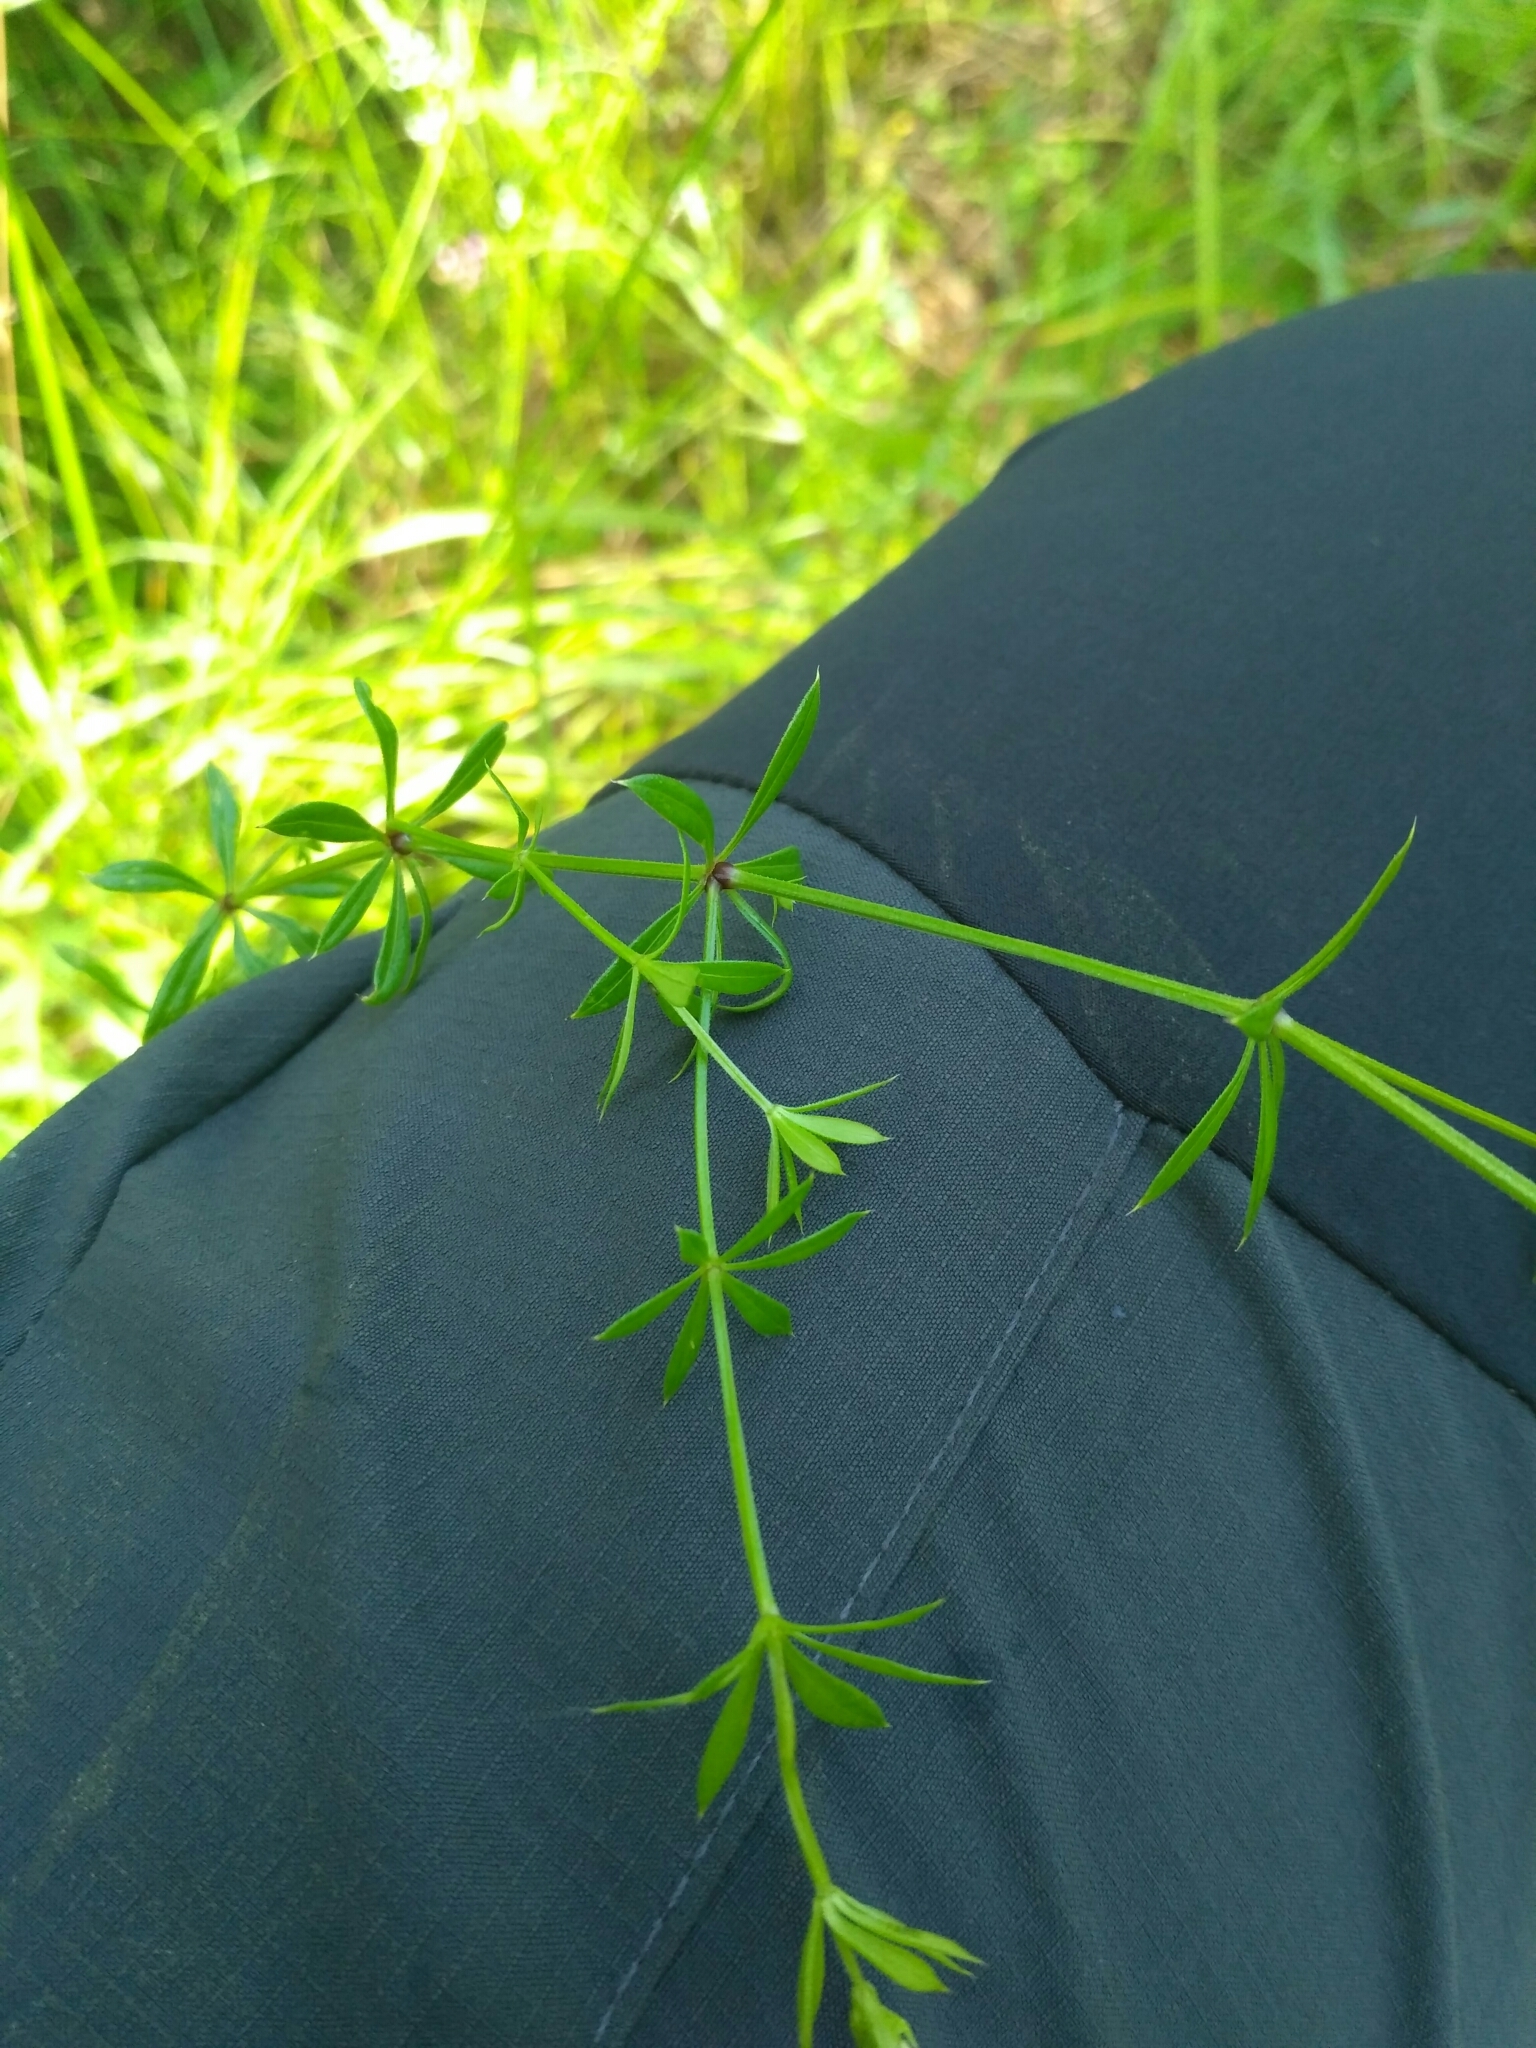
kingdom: Plantae
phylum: Tracheophyta
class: Magnoliopsida
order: Gentianales
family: Rubiaceae
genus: Galium
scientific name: Galium rivale
